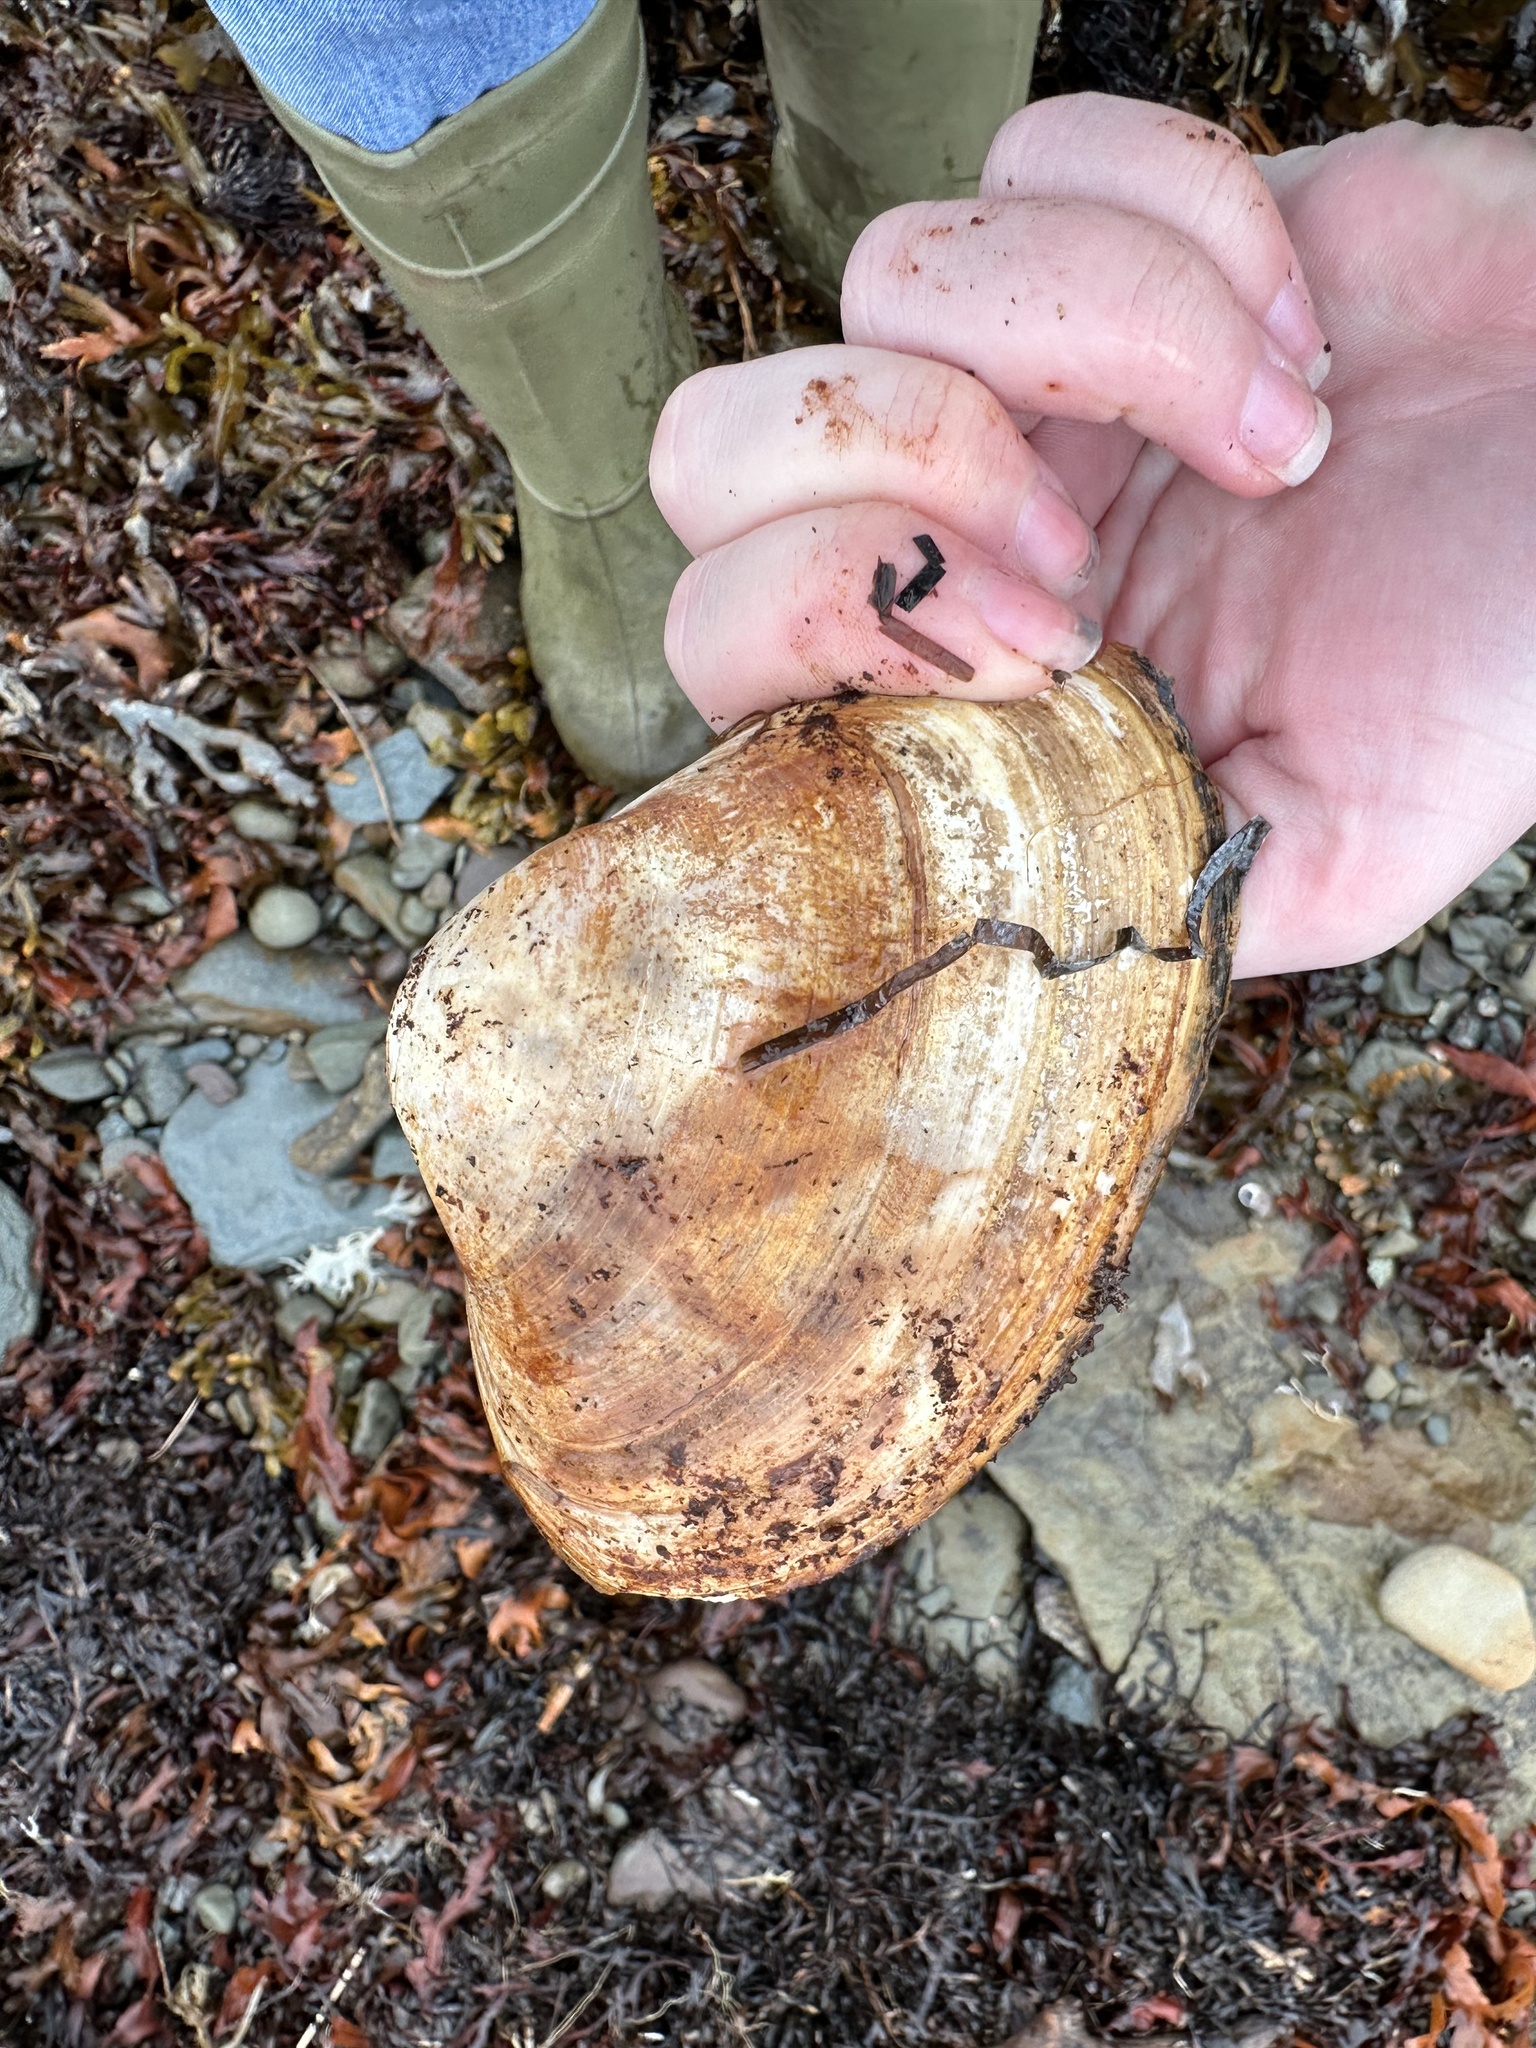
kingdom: Animalia
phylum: Mollusca
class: Bivalvia
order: Venerida
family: Mactridae
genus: Spisula
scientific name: Spisula solidissima
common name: Atlantic surf clam
